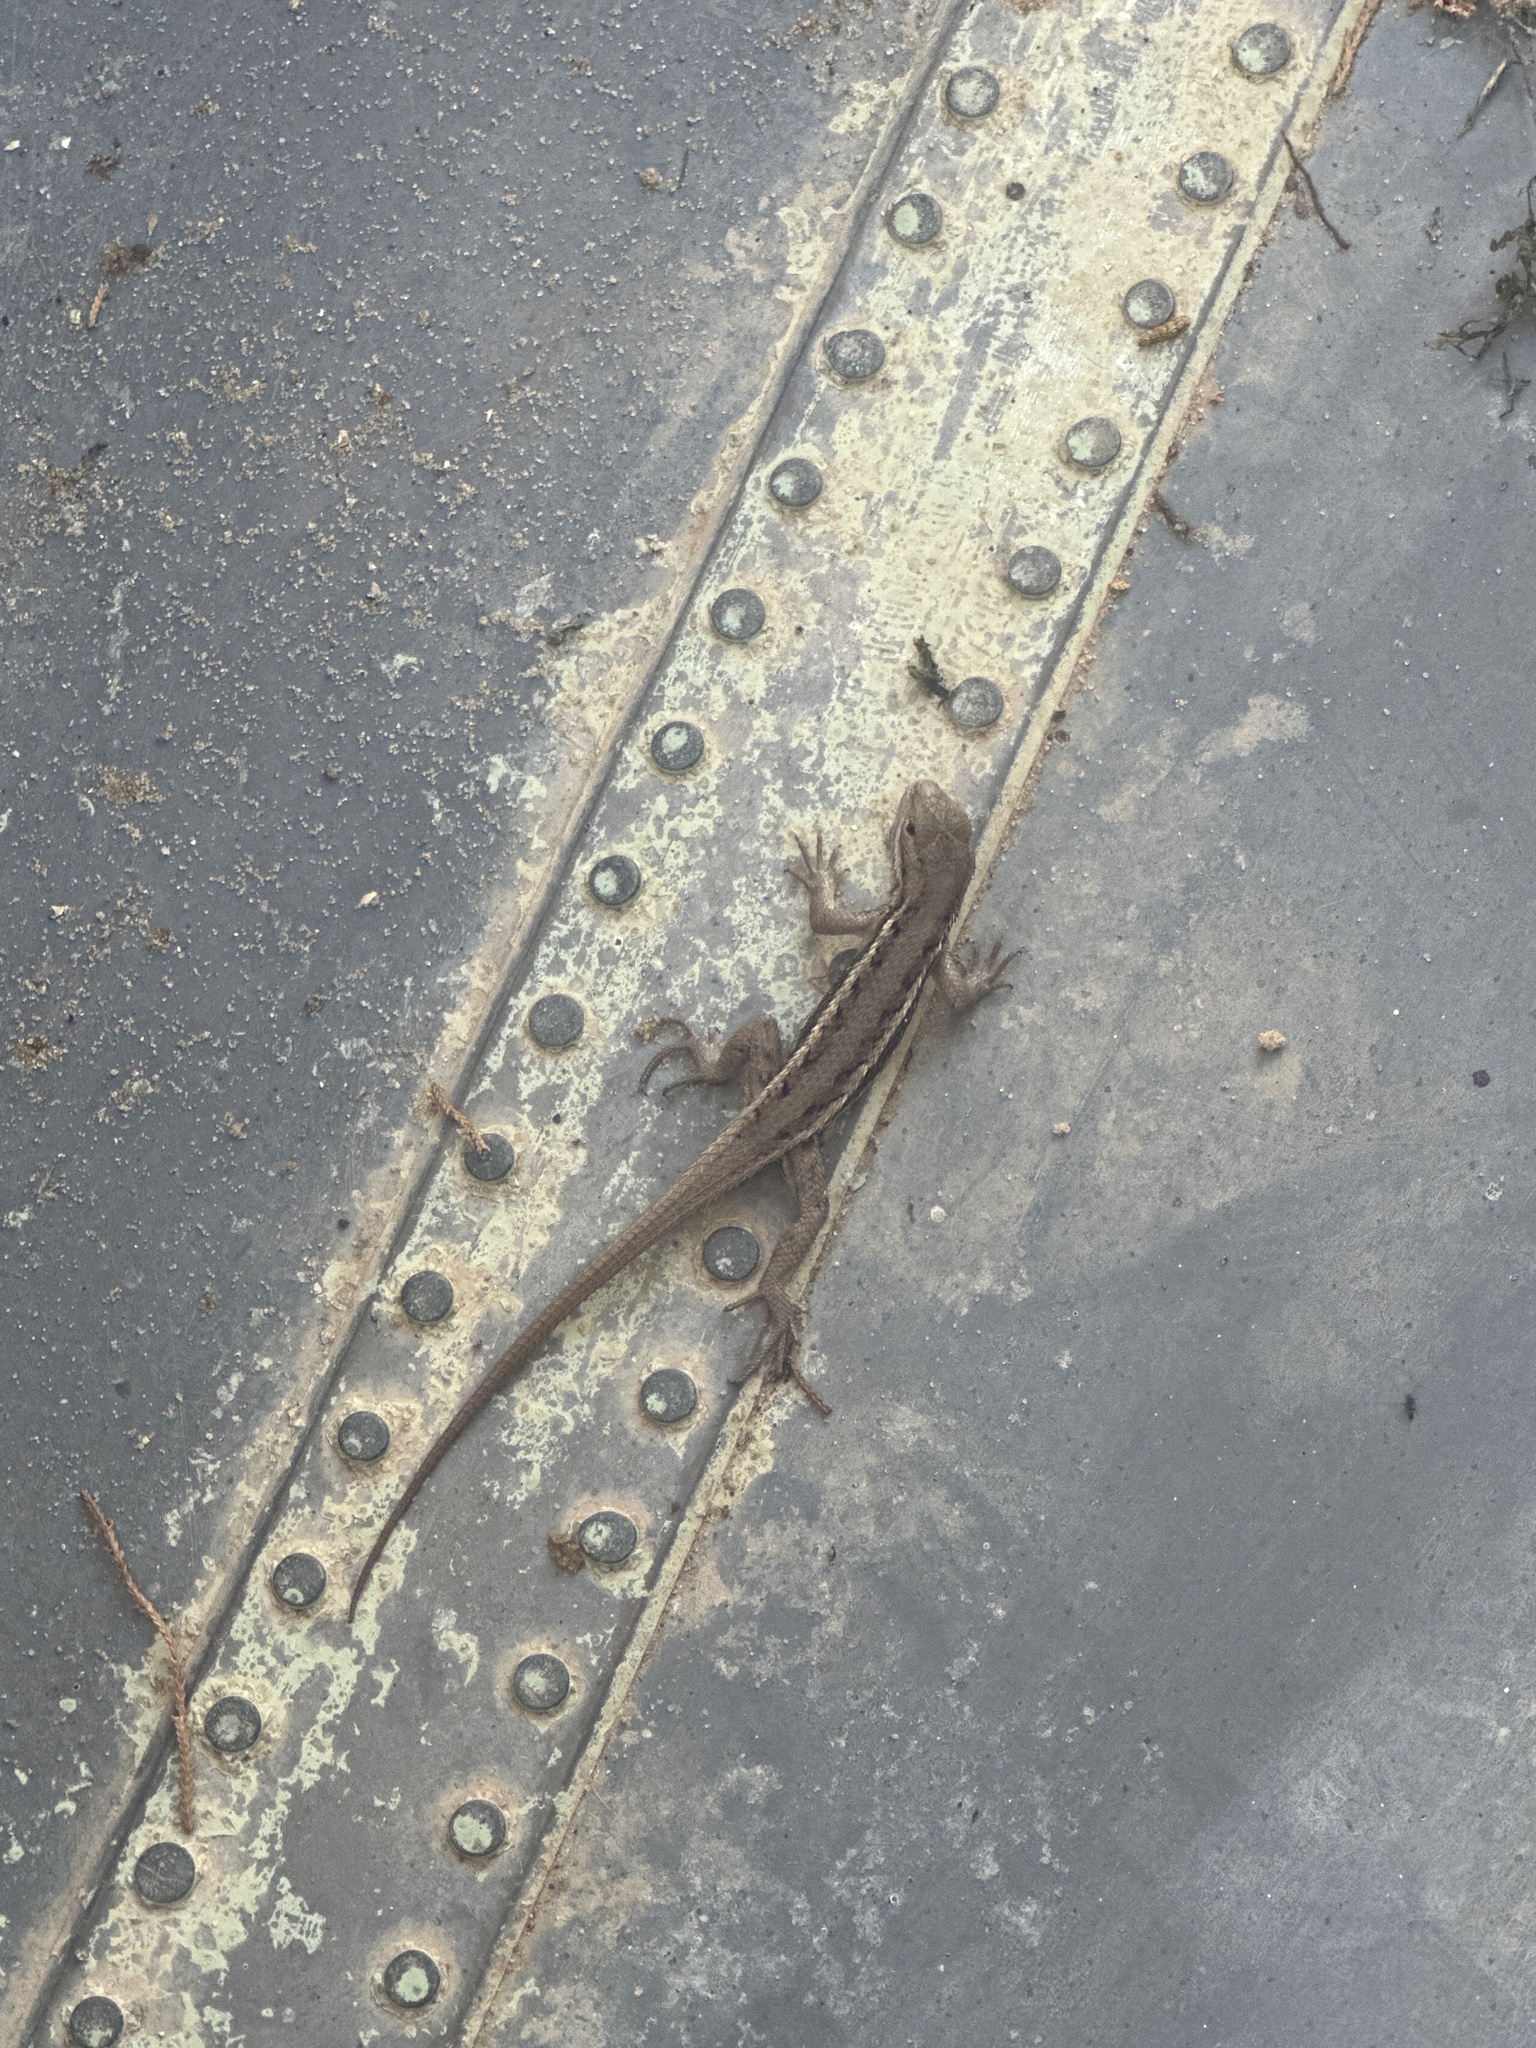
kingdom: Animalia
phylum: Chordata
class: Squamata
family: Phrynosomatidae
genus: Sceloporus
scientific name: Sceloporus consobrinus
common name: Southern prairie lizard
